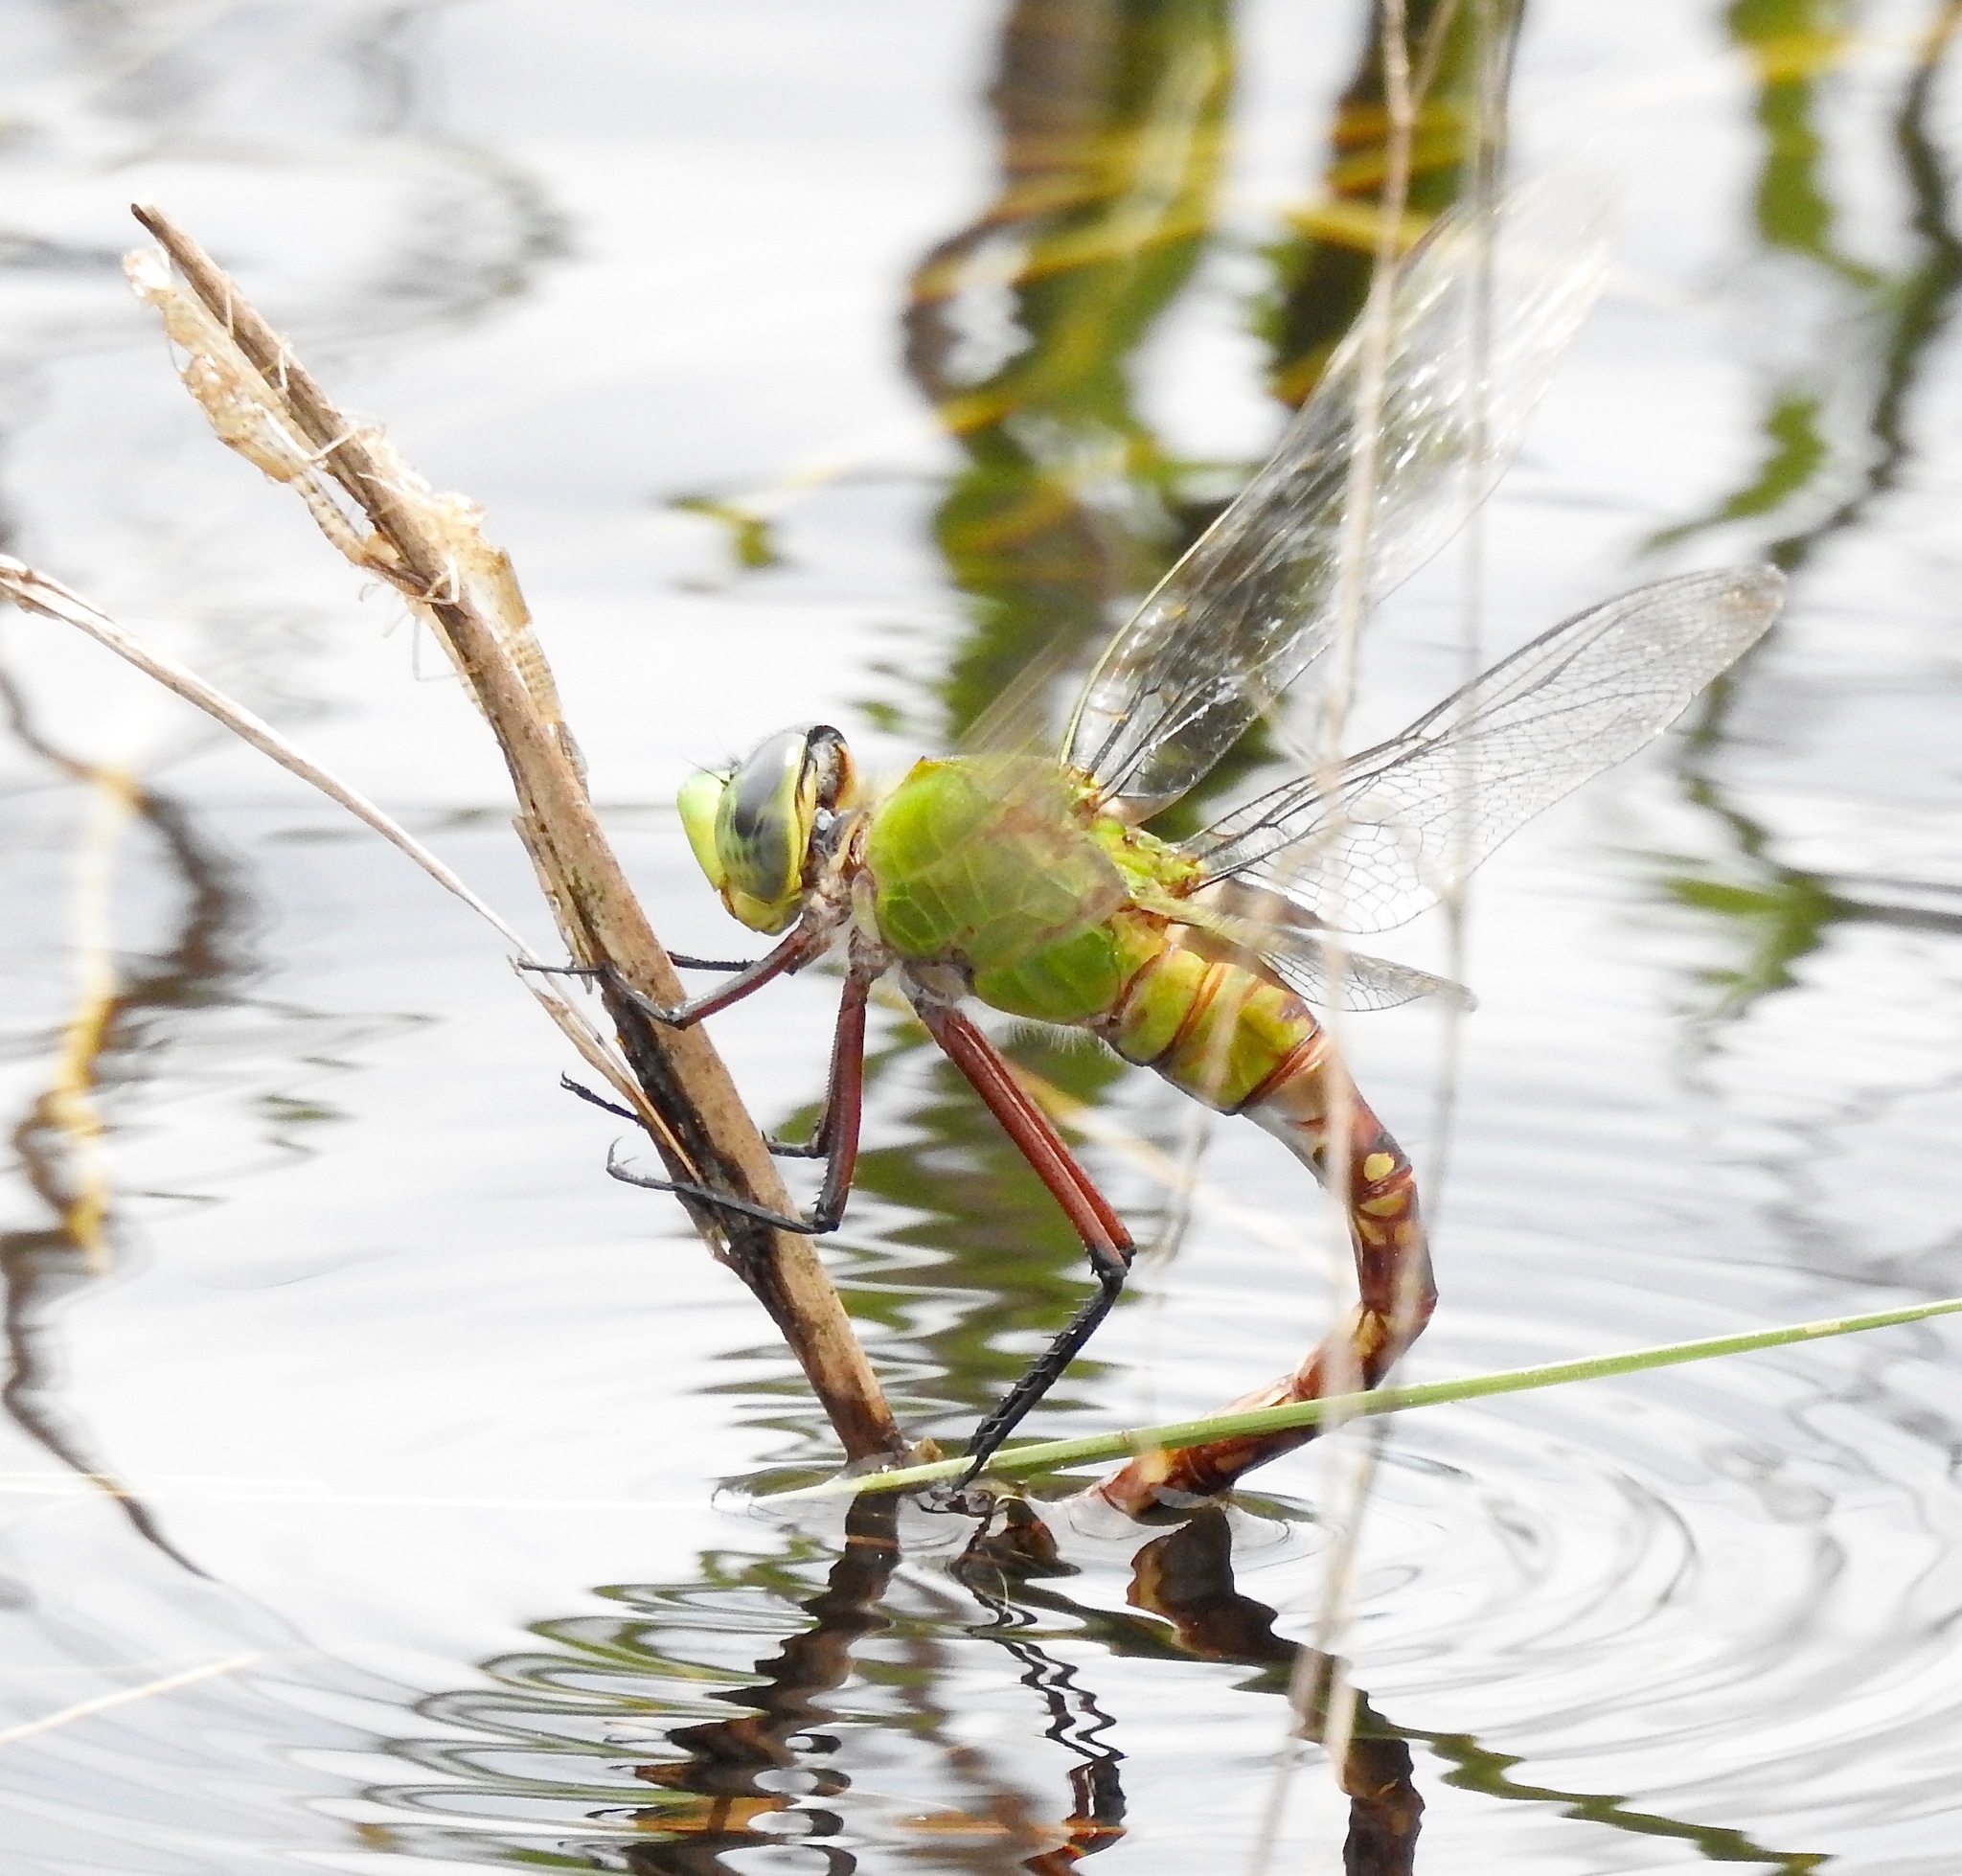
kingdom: Animalia
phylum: Arthropoda
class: Insecta
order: Odonata
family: Aeshnidae
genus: Anax
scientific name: Anax longipes
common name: Comet darner
